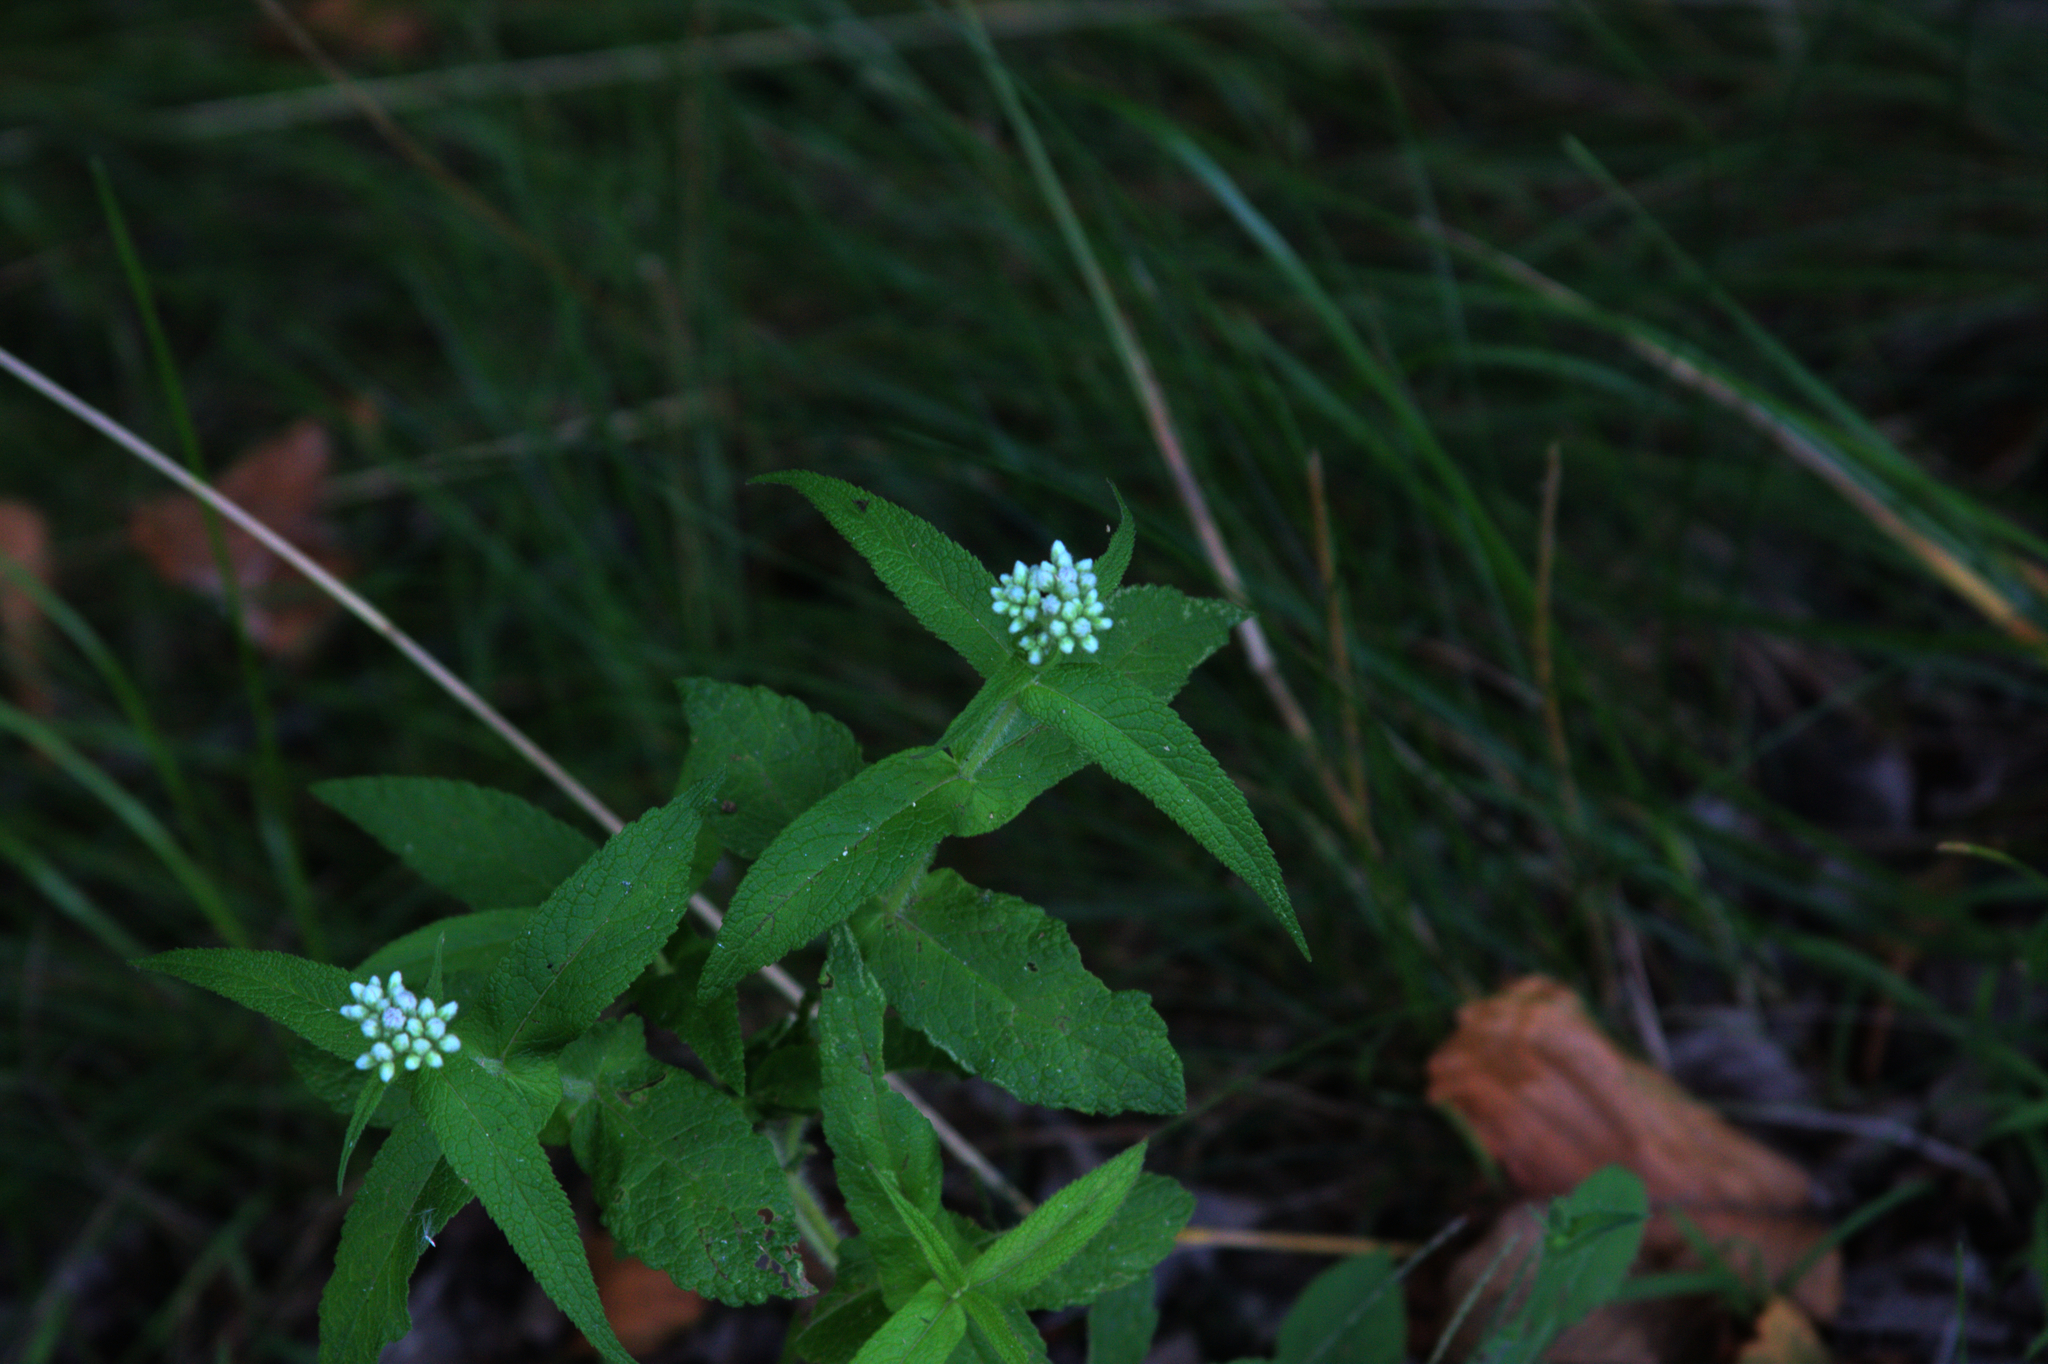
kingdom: Plantae
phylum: Tracheophyta
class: Magnoliopsida
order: Asterales
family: Asteraceae
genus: Eupatorium
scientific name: Eupatorium perfoliatum
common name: Boneset
